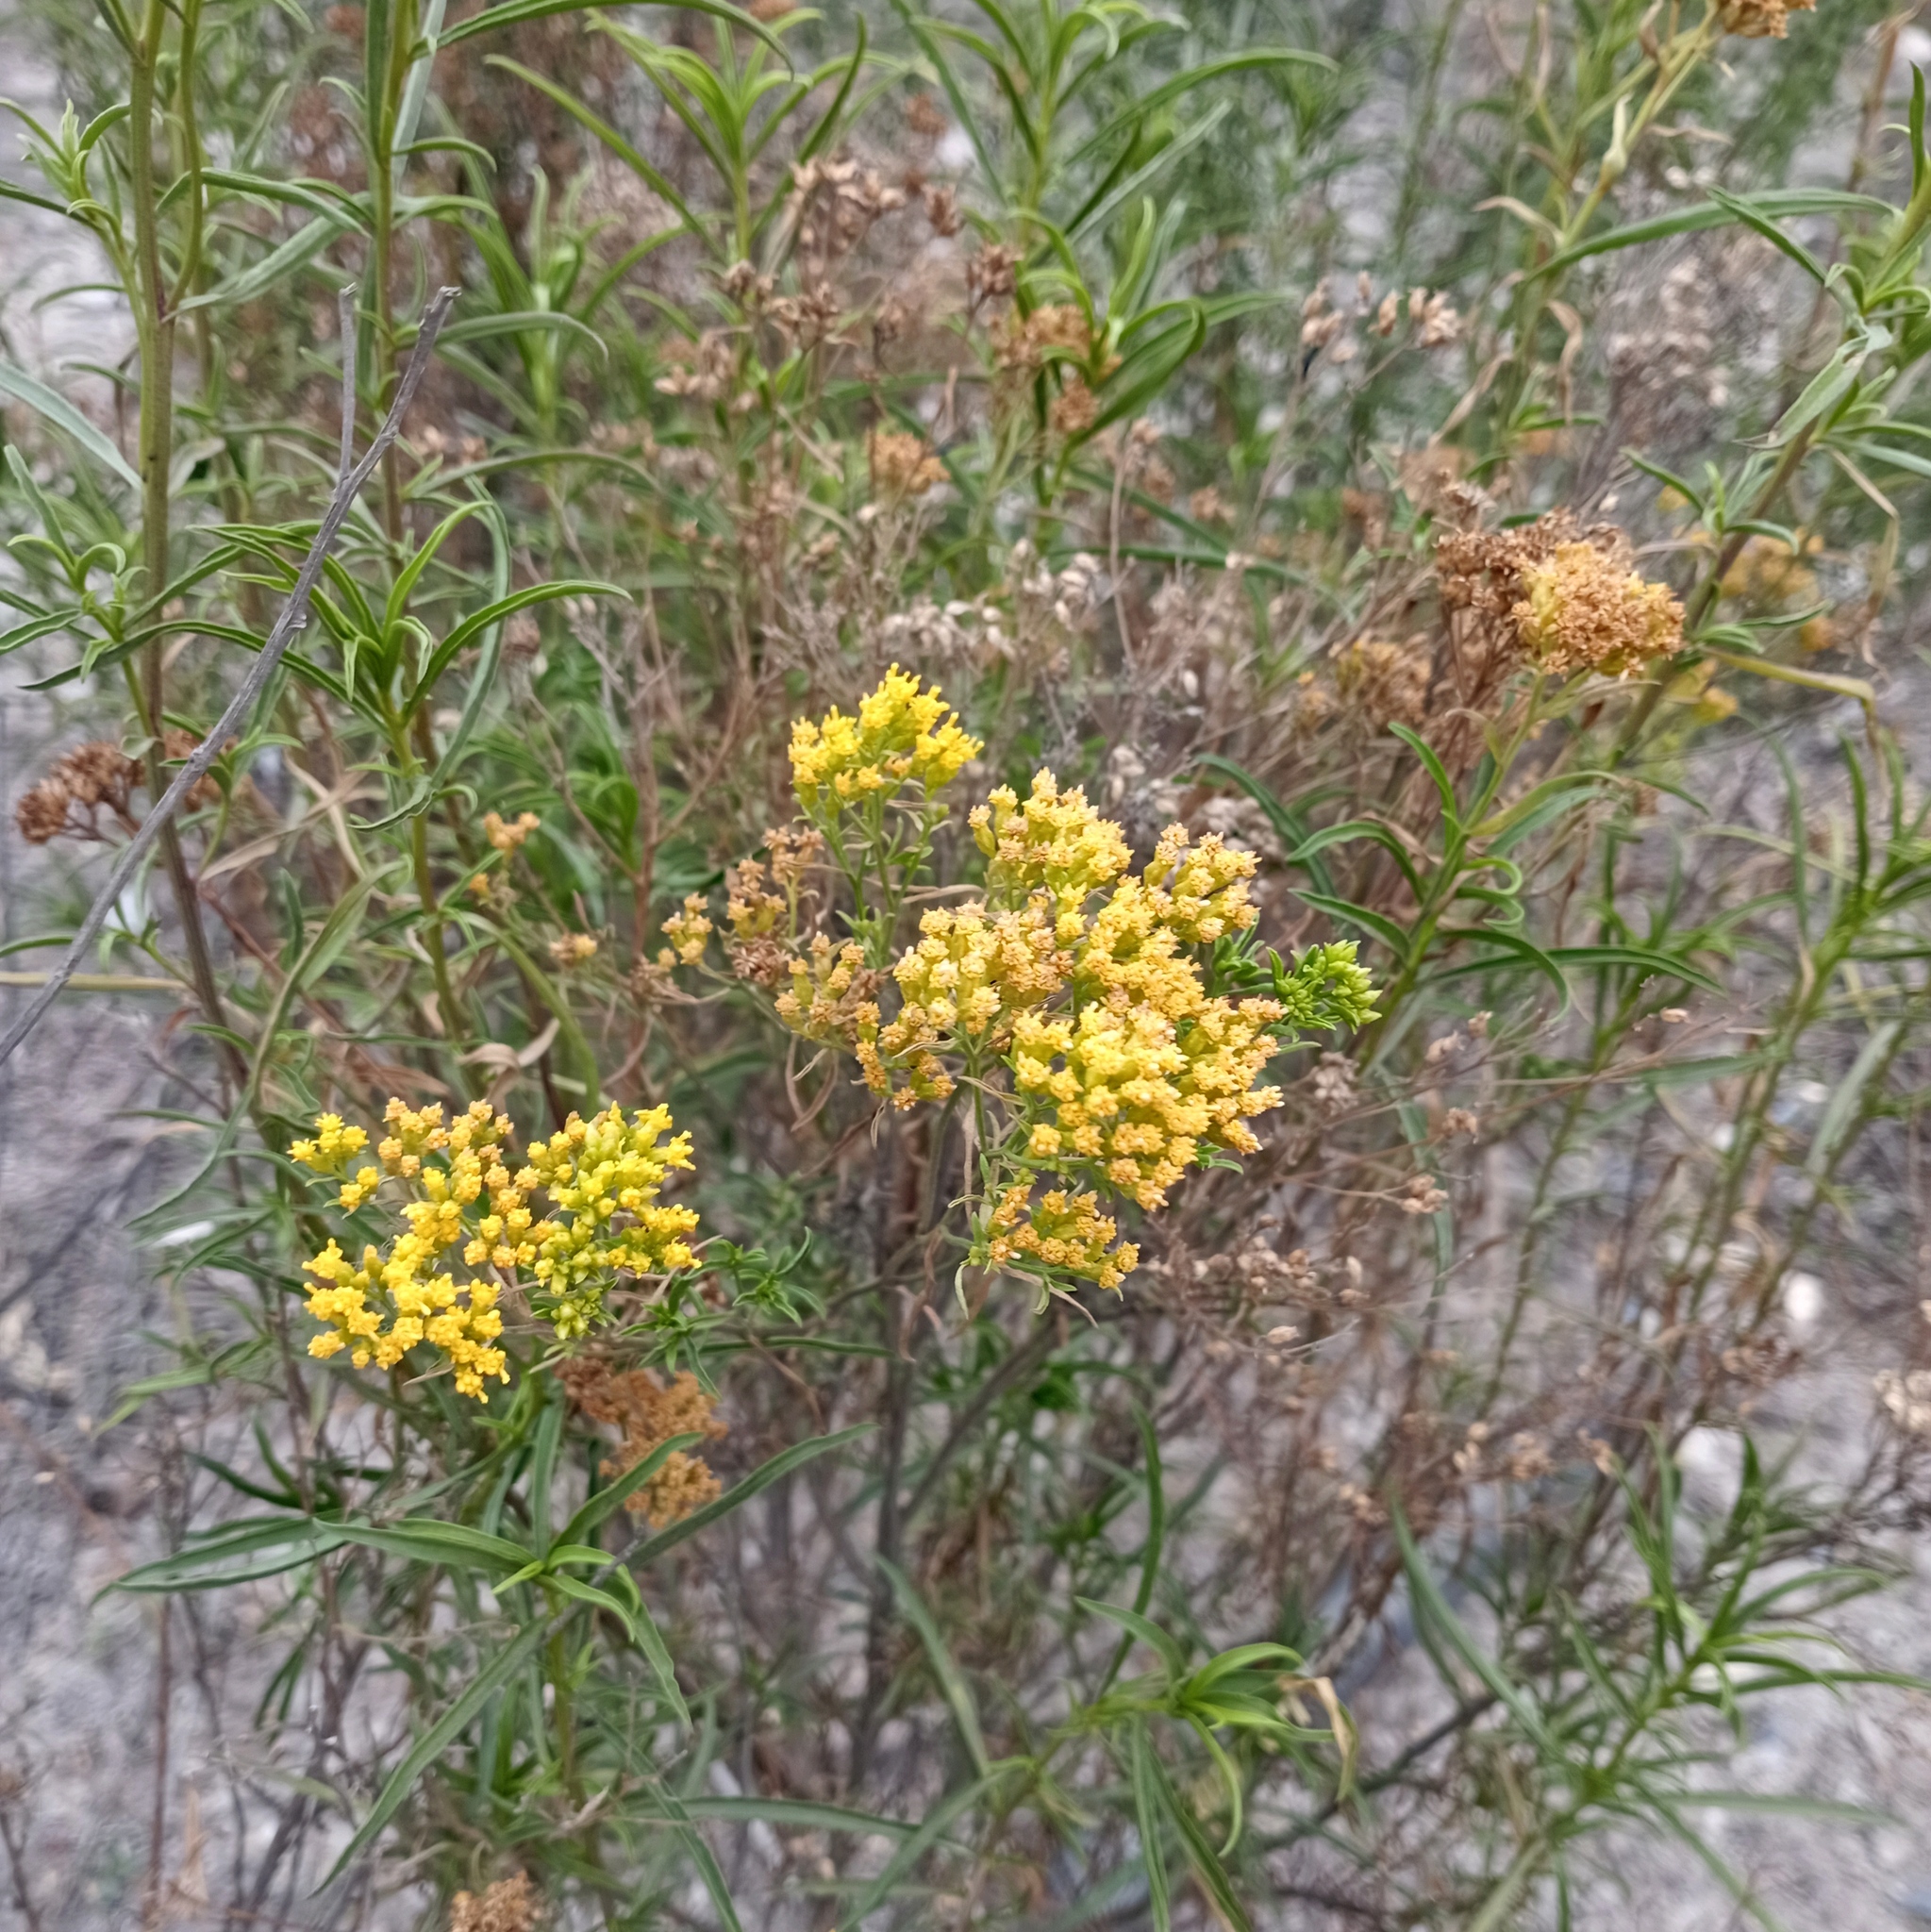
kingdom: Plantae
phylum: Tracheophyta
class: Magnoliopsida
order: Asterales
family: Asteraceae
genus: Gymnosperma
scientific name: Gymnosperma glutinosum
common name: Gumhead
